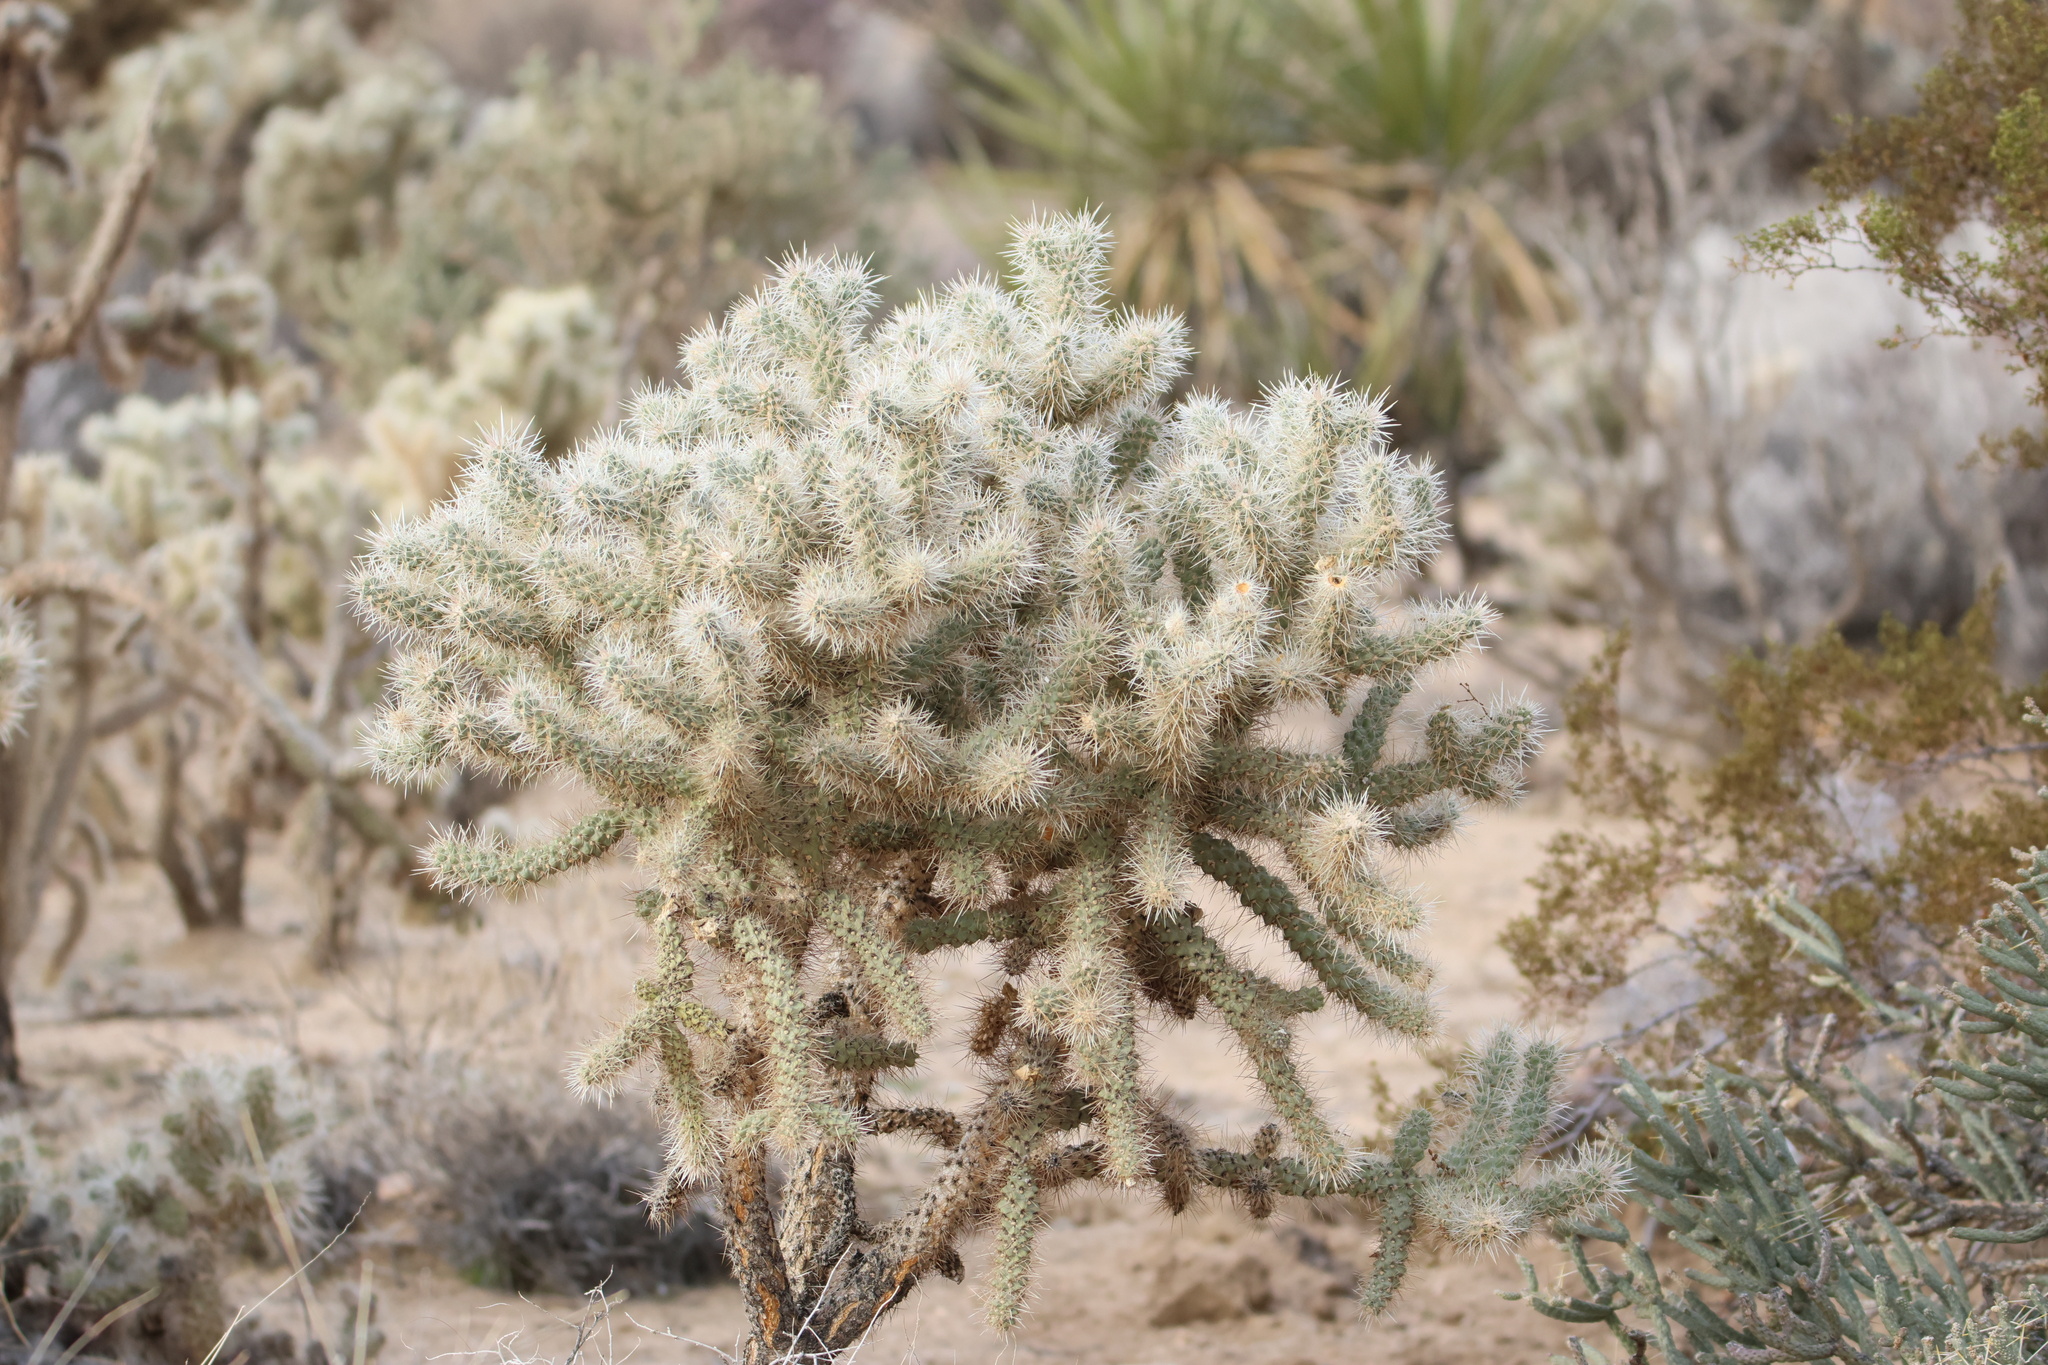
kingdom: Plantae
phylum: Tracheophyta
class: Magnoliopsida
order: Caryophyllales
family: Cactaceae
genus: Cylindropuntia
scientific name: Cylindropuntia echinocarpa
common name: Ground cholla
